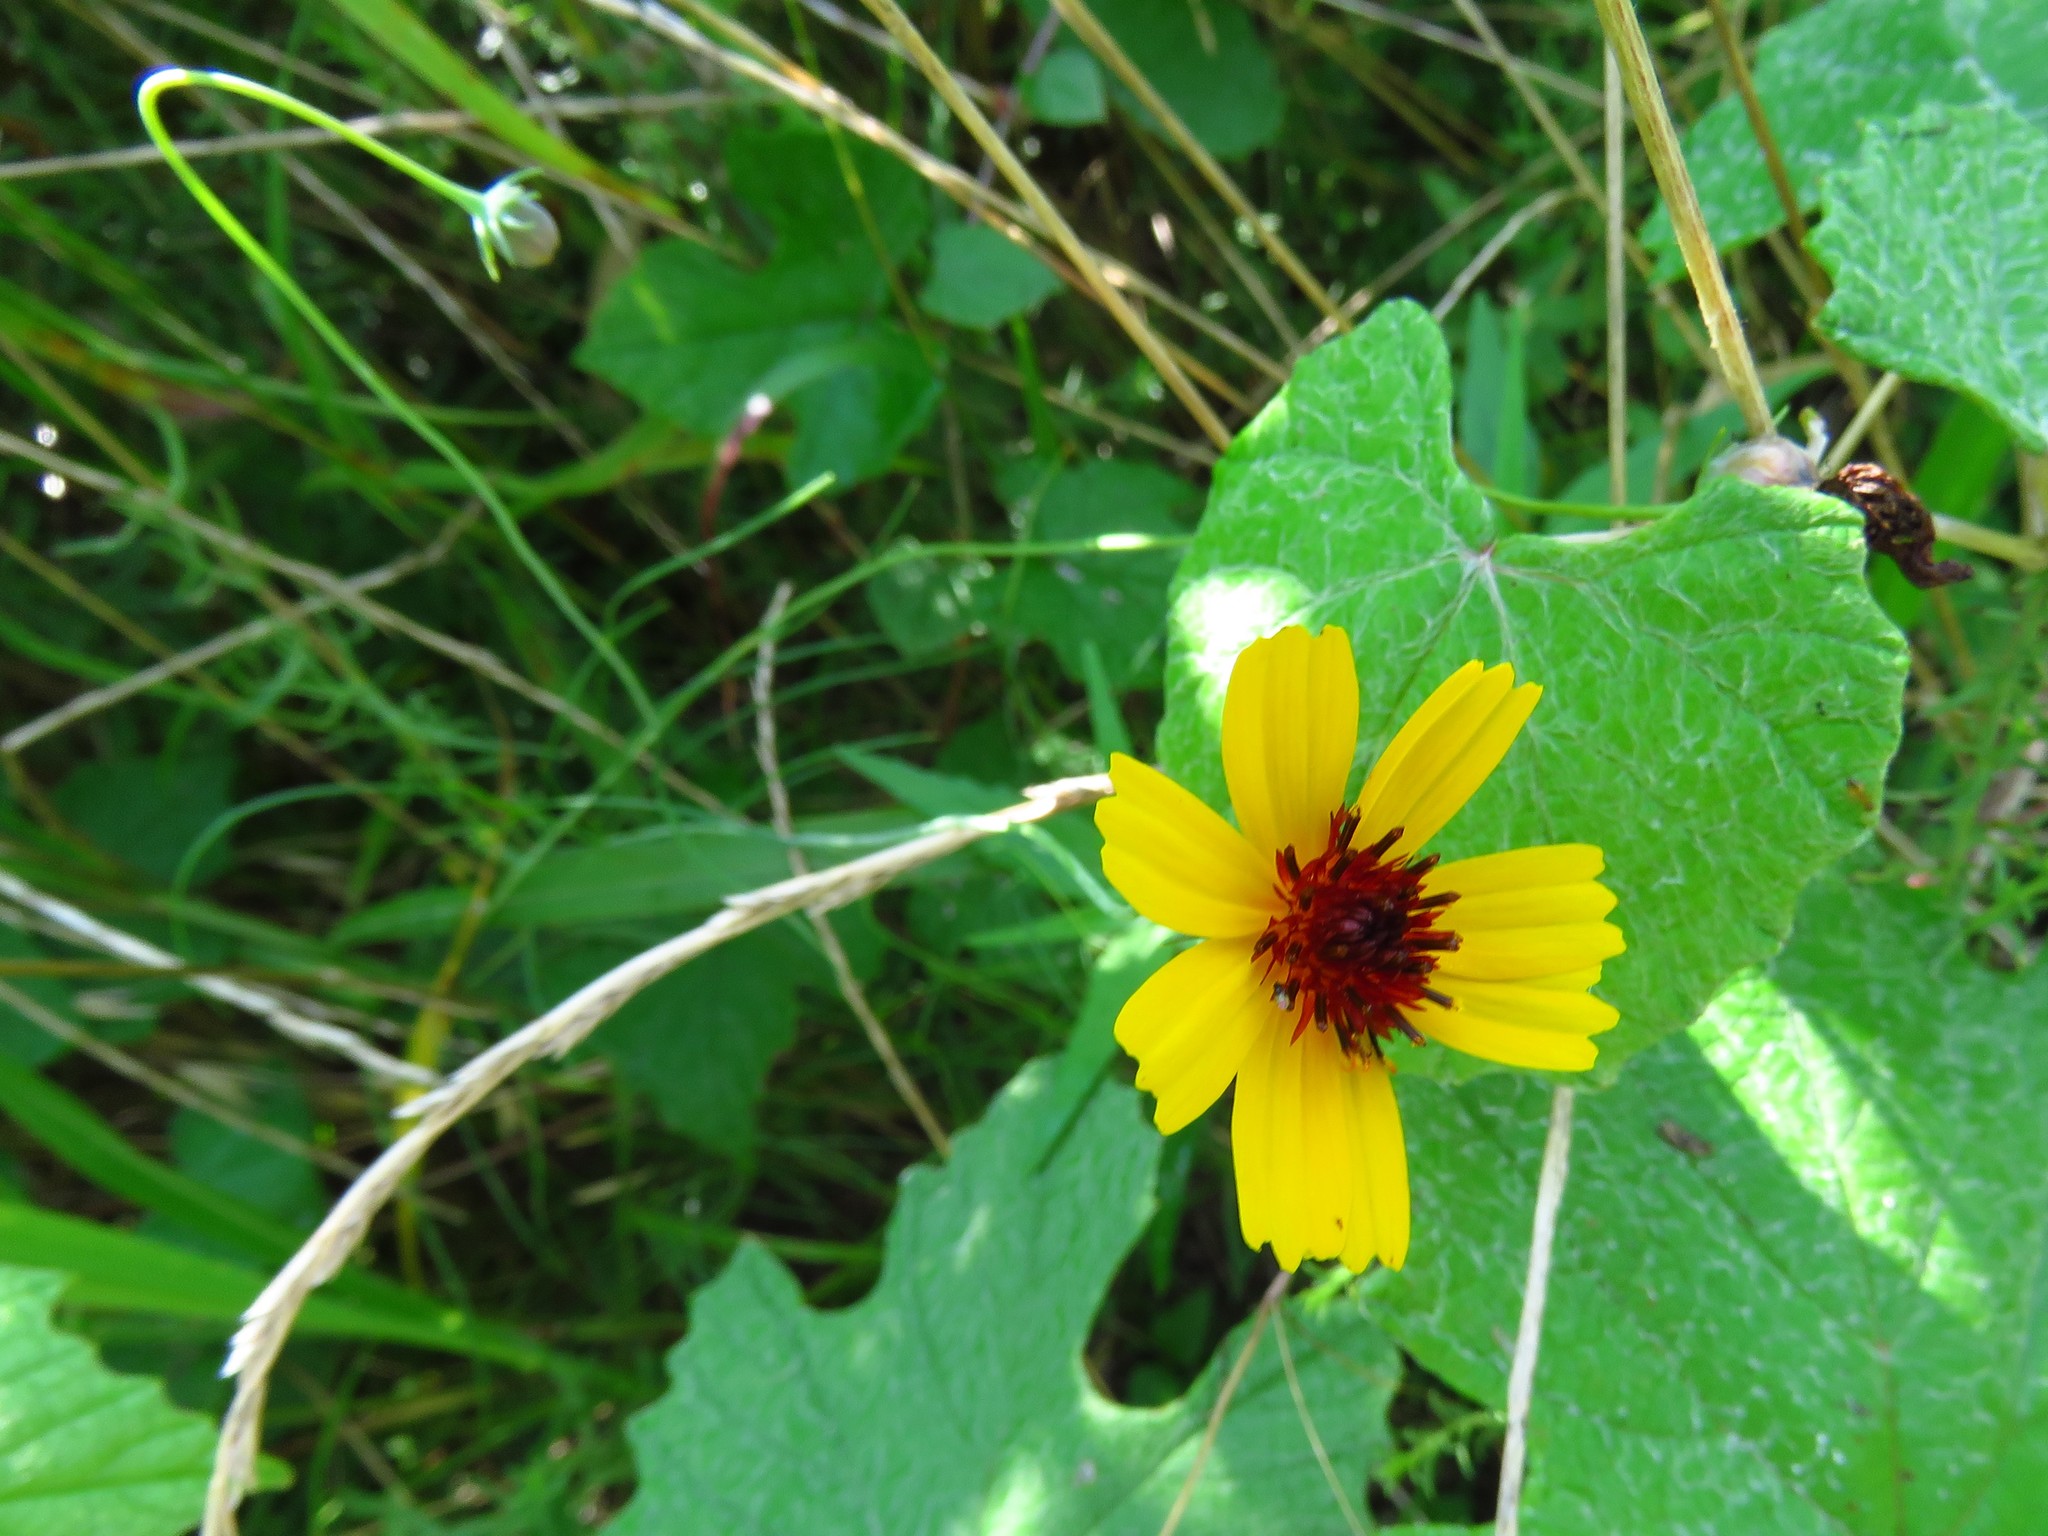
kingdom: Plantae
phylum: Tracheophyta
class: Magnoliopsida
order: Asterales
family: Asteraceae
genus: Thelesperma
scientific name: Thelesperma filifolium
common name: Stiff greenthread
